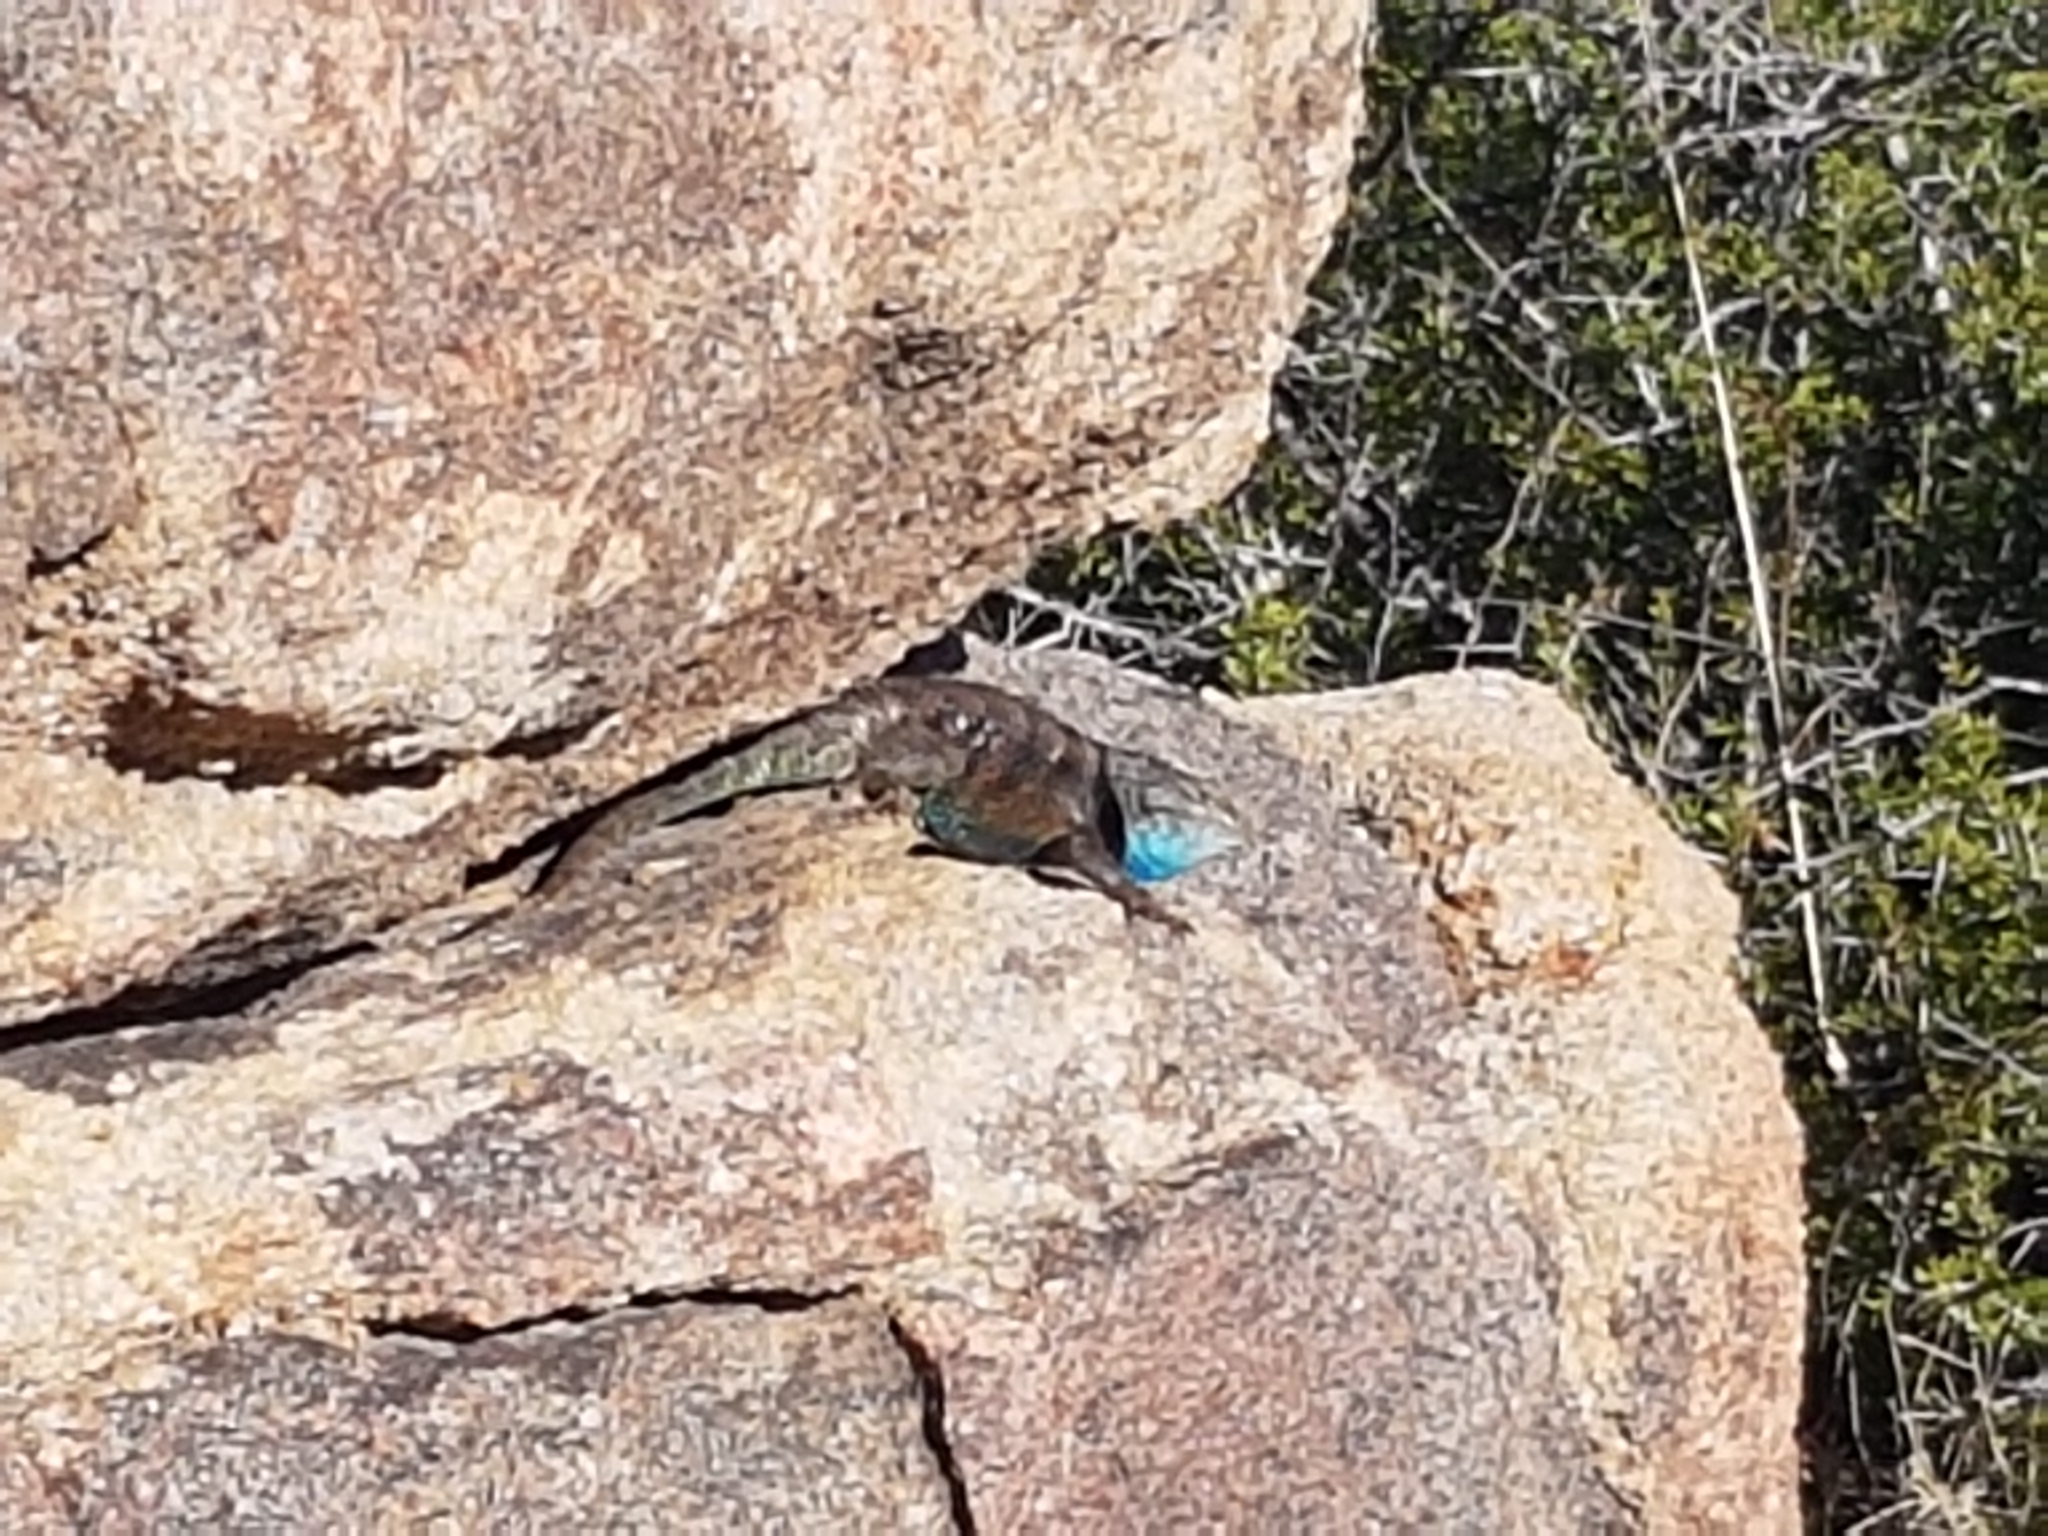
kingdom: Animalia
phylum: Chordata
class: Squamata
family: Phrynosomatidae
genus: Sceloporus
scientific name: Sceloporus magister
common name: Desert spiny lizard
